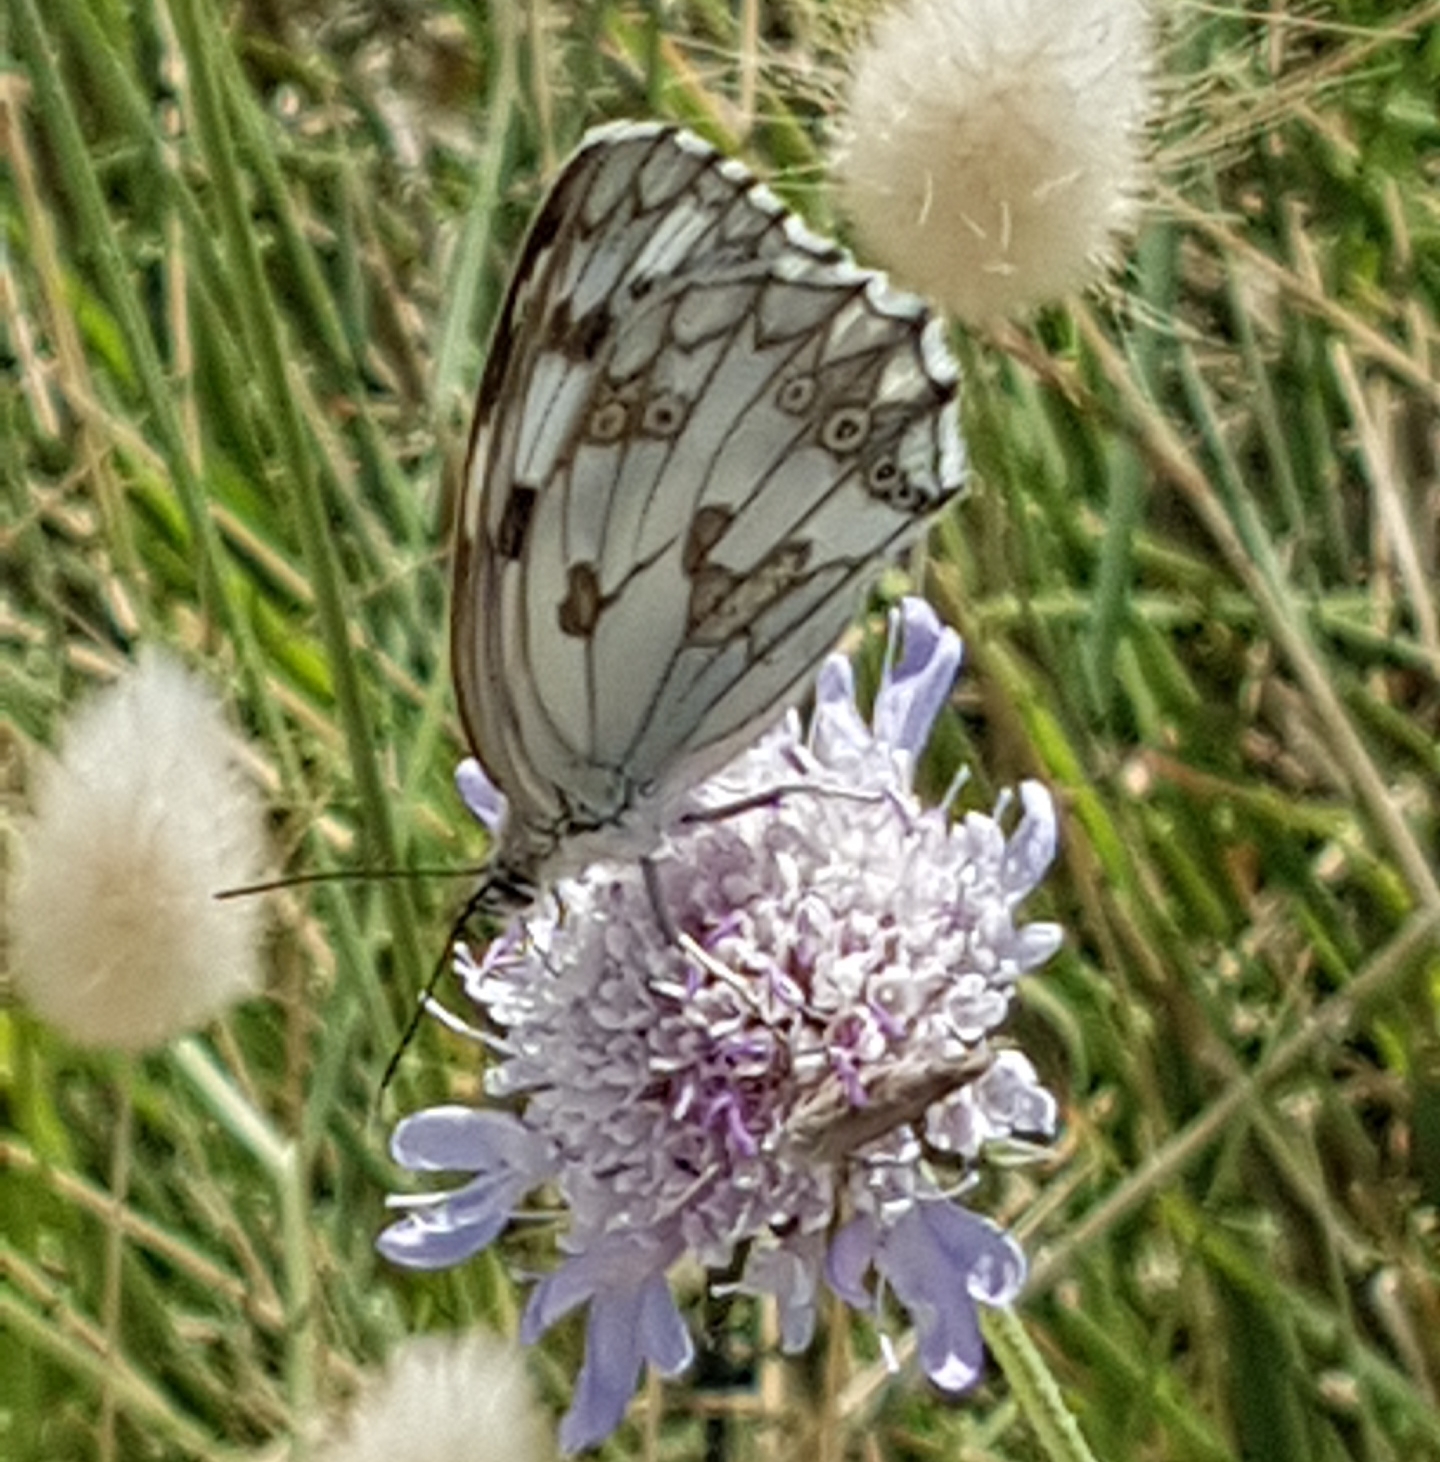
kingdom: Animalia
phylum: Arthropoda
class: Insecta
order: Lepidoptera
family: Nymphalidae
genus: Melanargia
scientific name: Melanargia lachesis
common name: Iberian marbled white
